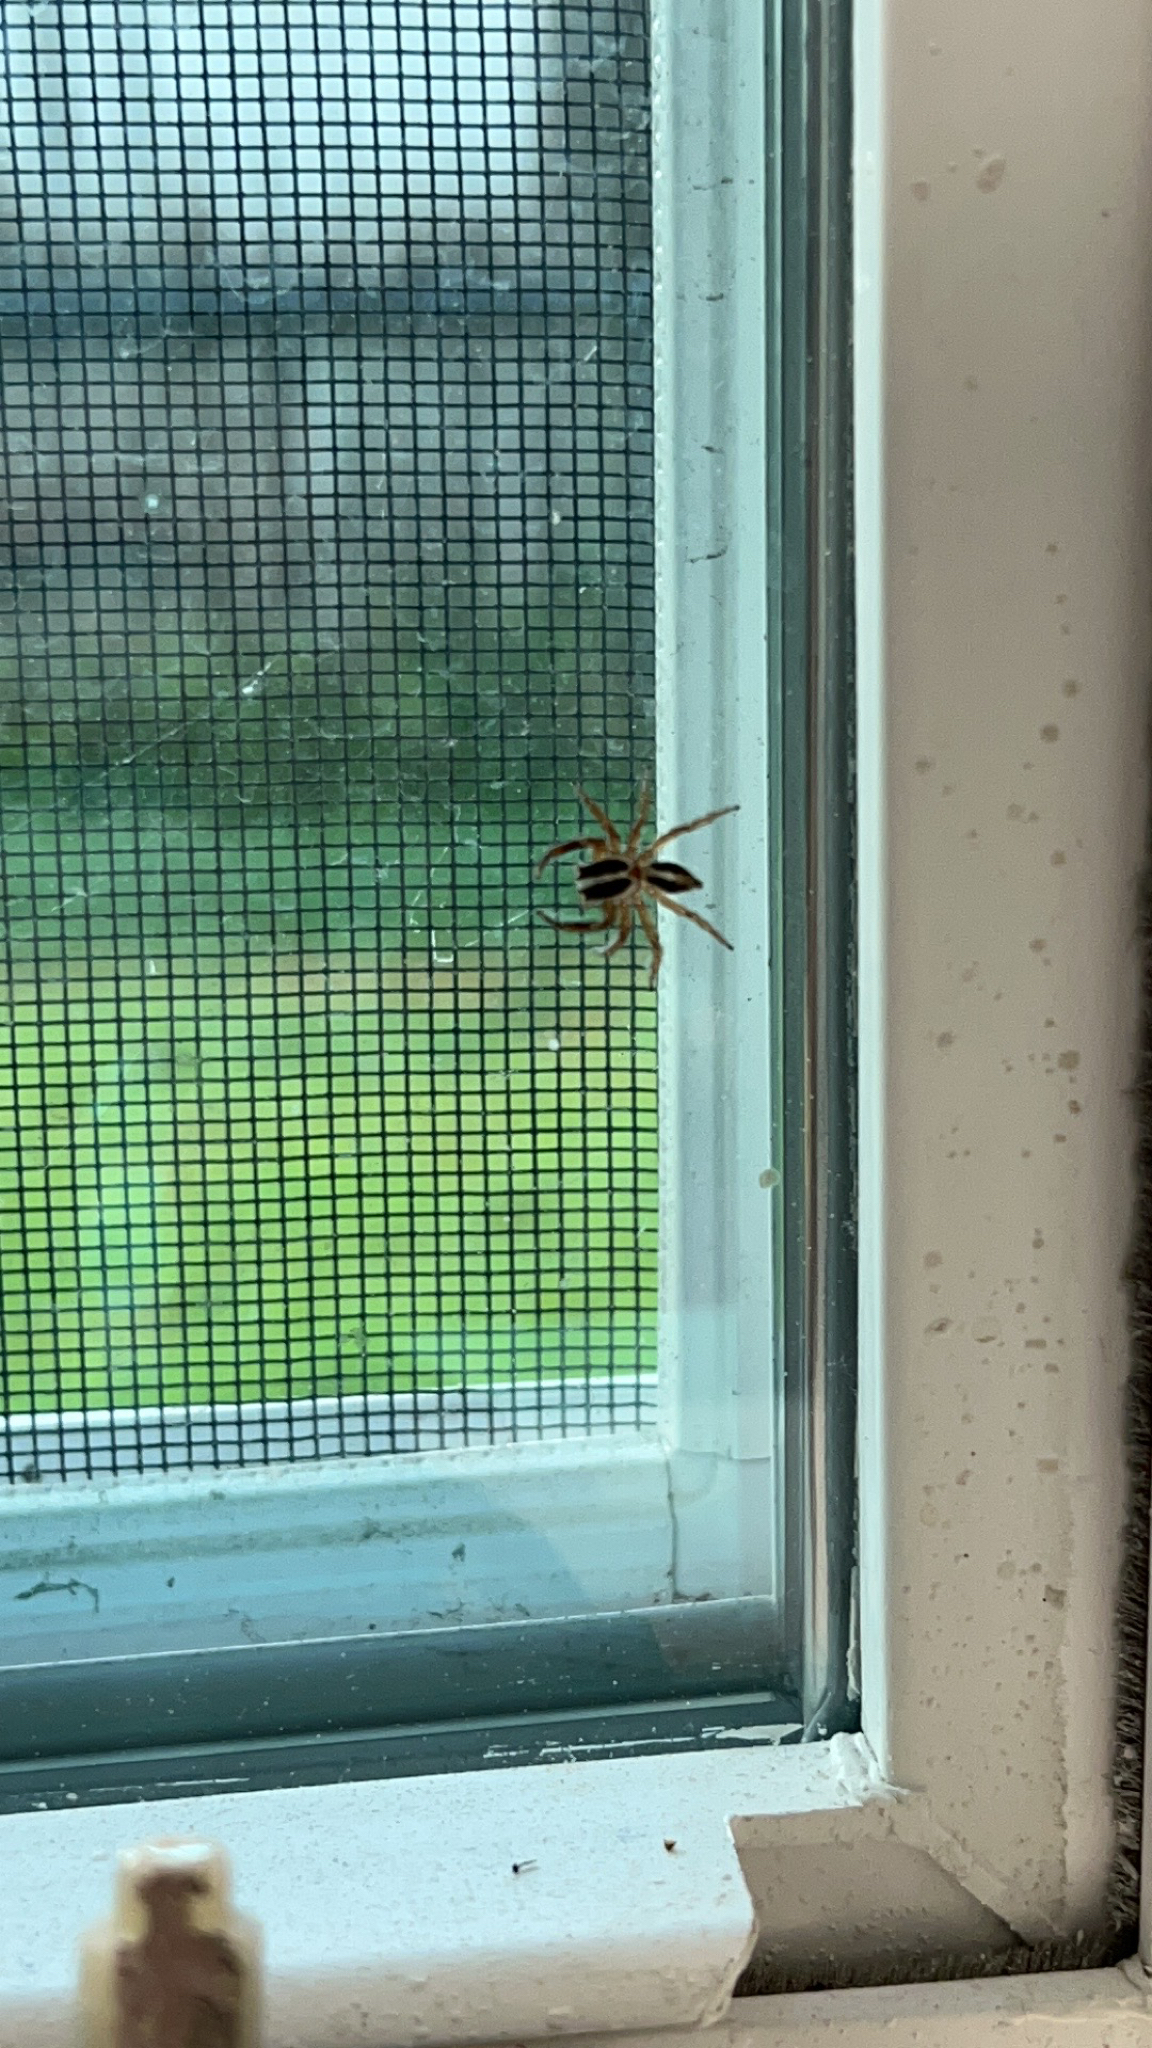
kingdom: Animalia
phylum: Arthropoda
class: Arachnida
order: Araneae
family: Salticidae
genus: Plexippus
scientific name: Plexippus paykulli
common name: Pantropical jumper
